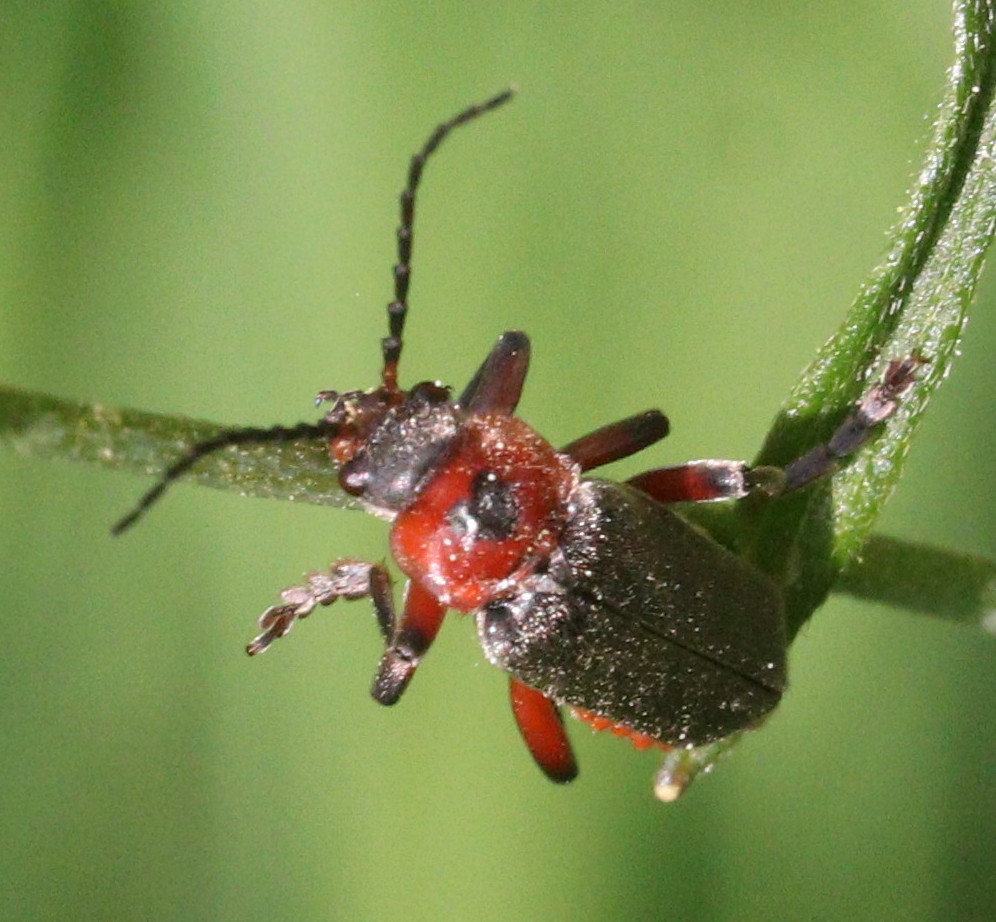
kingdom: Animalia
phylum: Arthropoda
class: Insecta
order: Coleoptera
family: Cantharidae
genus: Cantharis
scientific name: Cantharis rustica
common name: Soldier beetle
